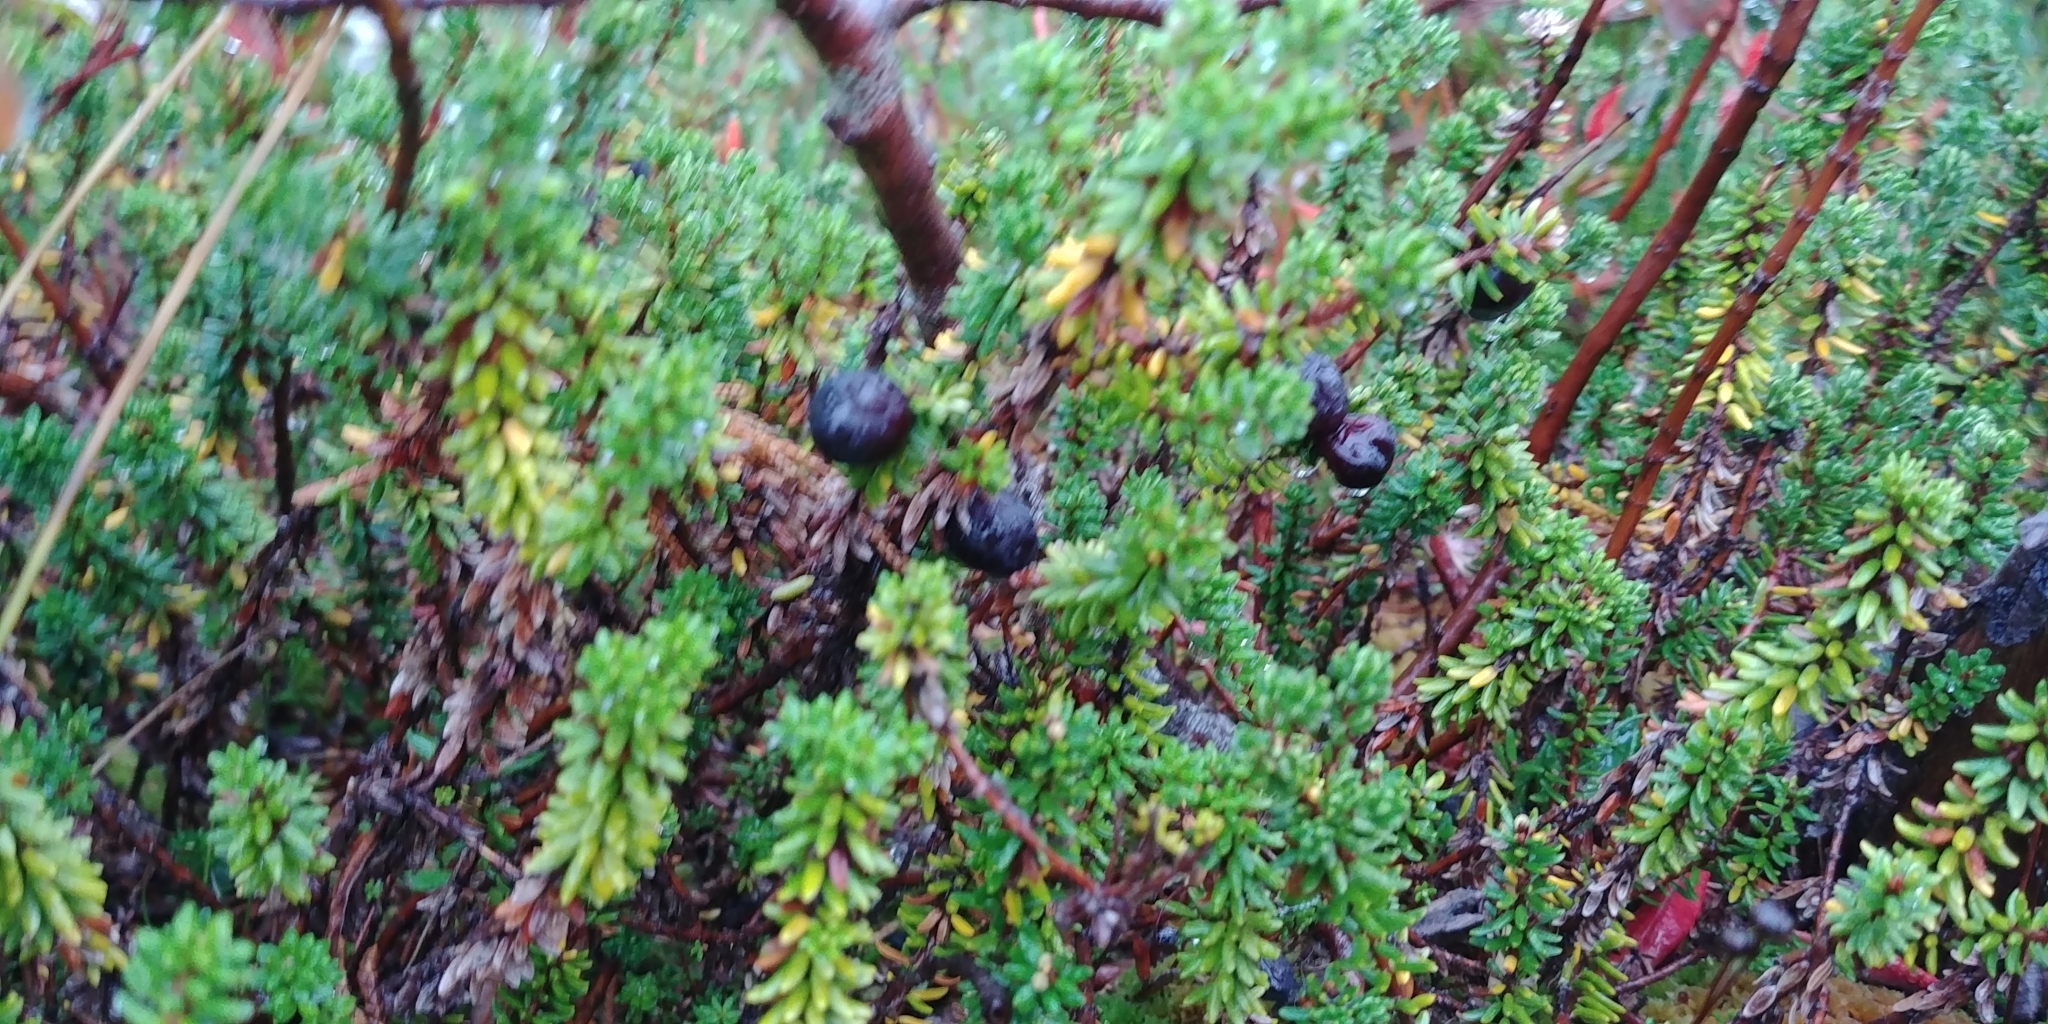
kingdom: Plantae
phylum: Tracheophyta
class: Magnoliopsida
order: Ericales
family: Ericaceae
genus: Empetrum
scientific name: Empetrum nigrum
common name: Black crowberry
